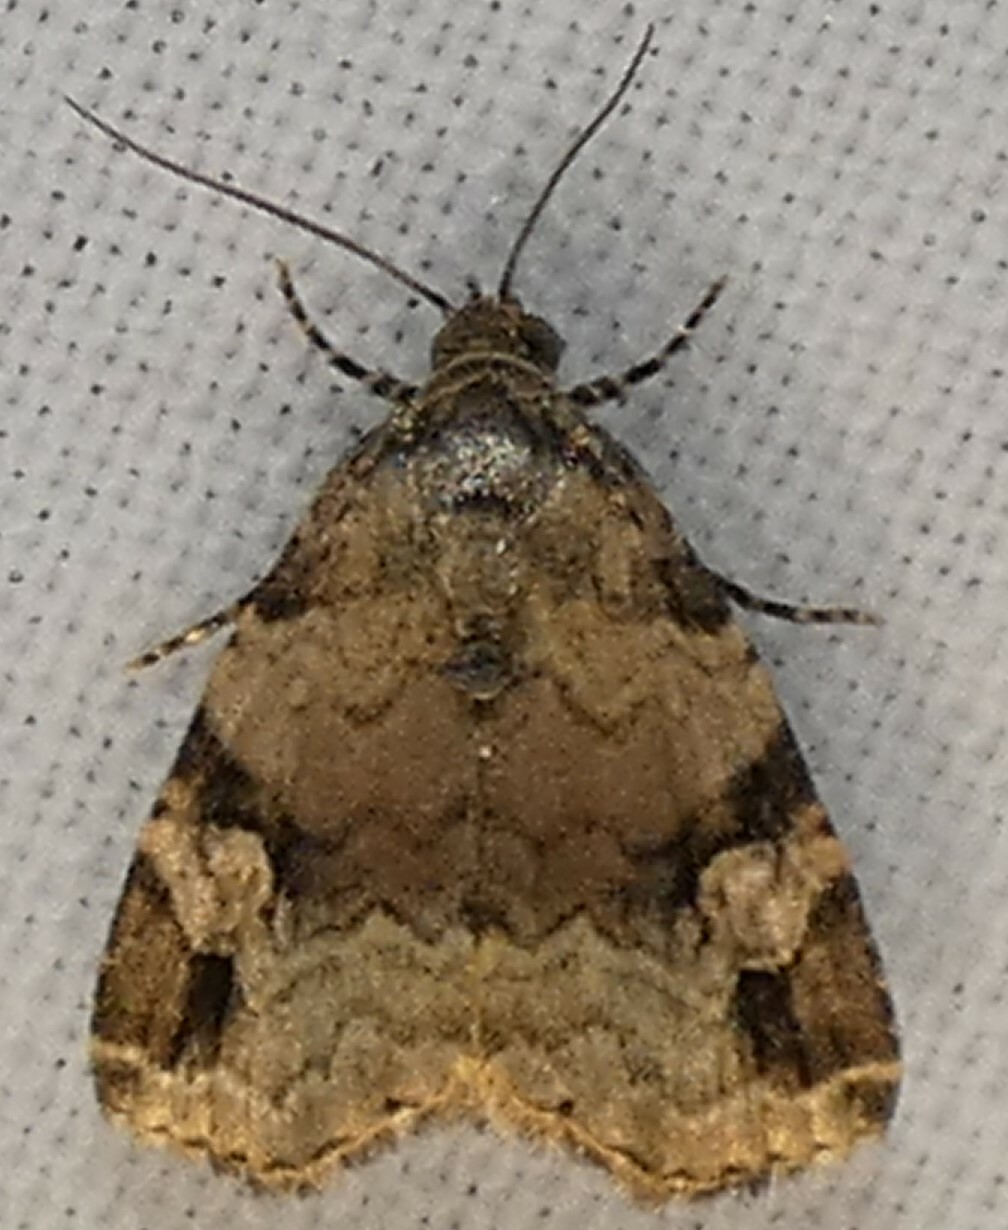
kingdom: Animalia
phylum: Arthropoda
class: Insecta
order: Lepidoptera
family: Noctuidae
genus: Ozarba
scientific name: Ozarba aeria
